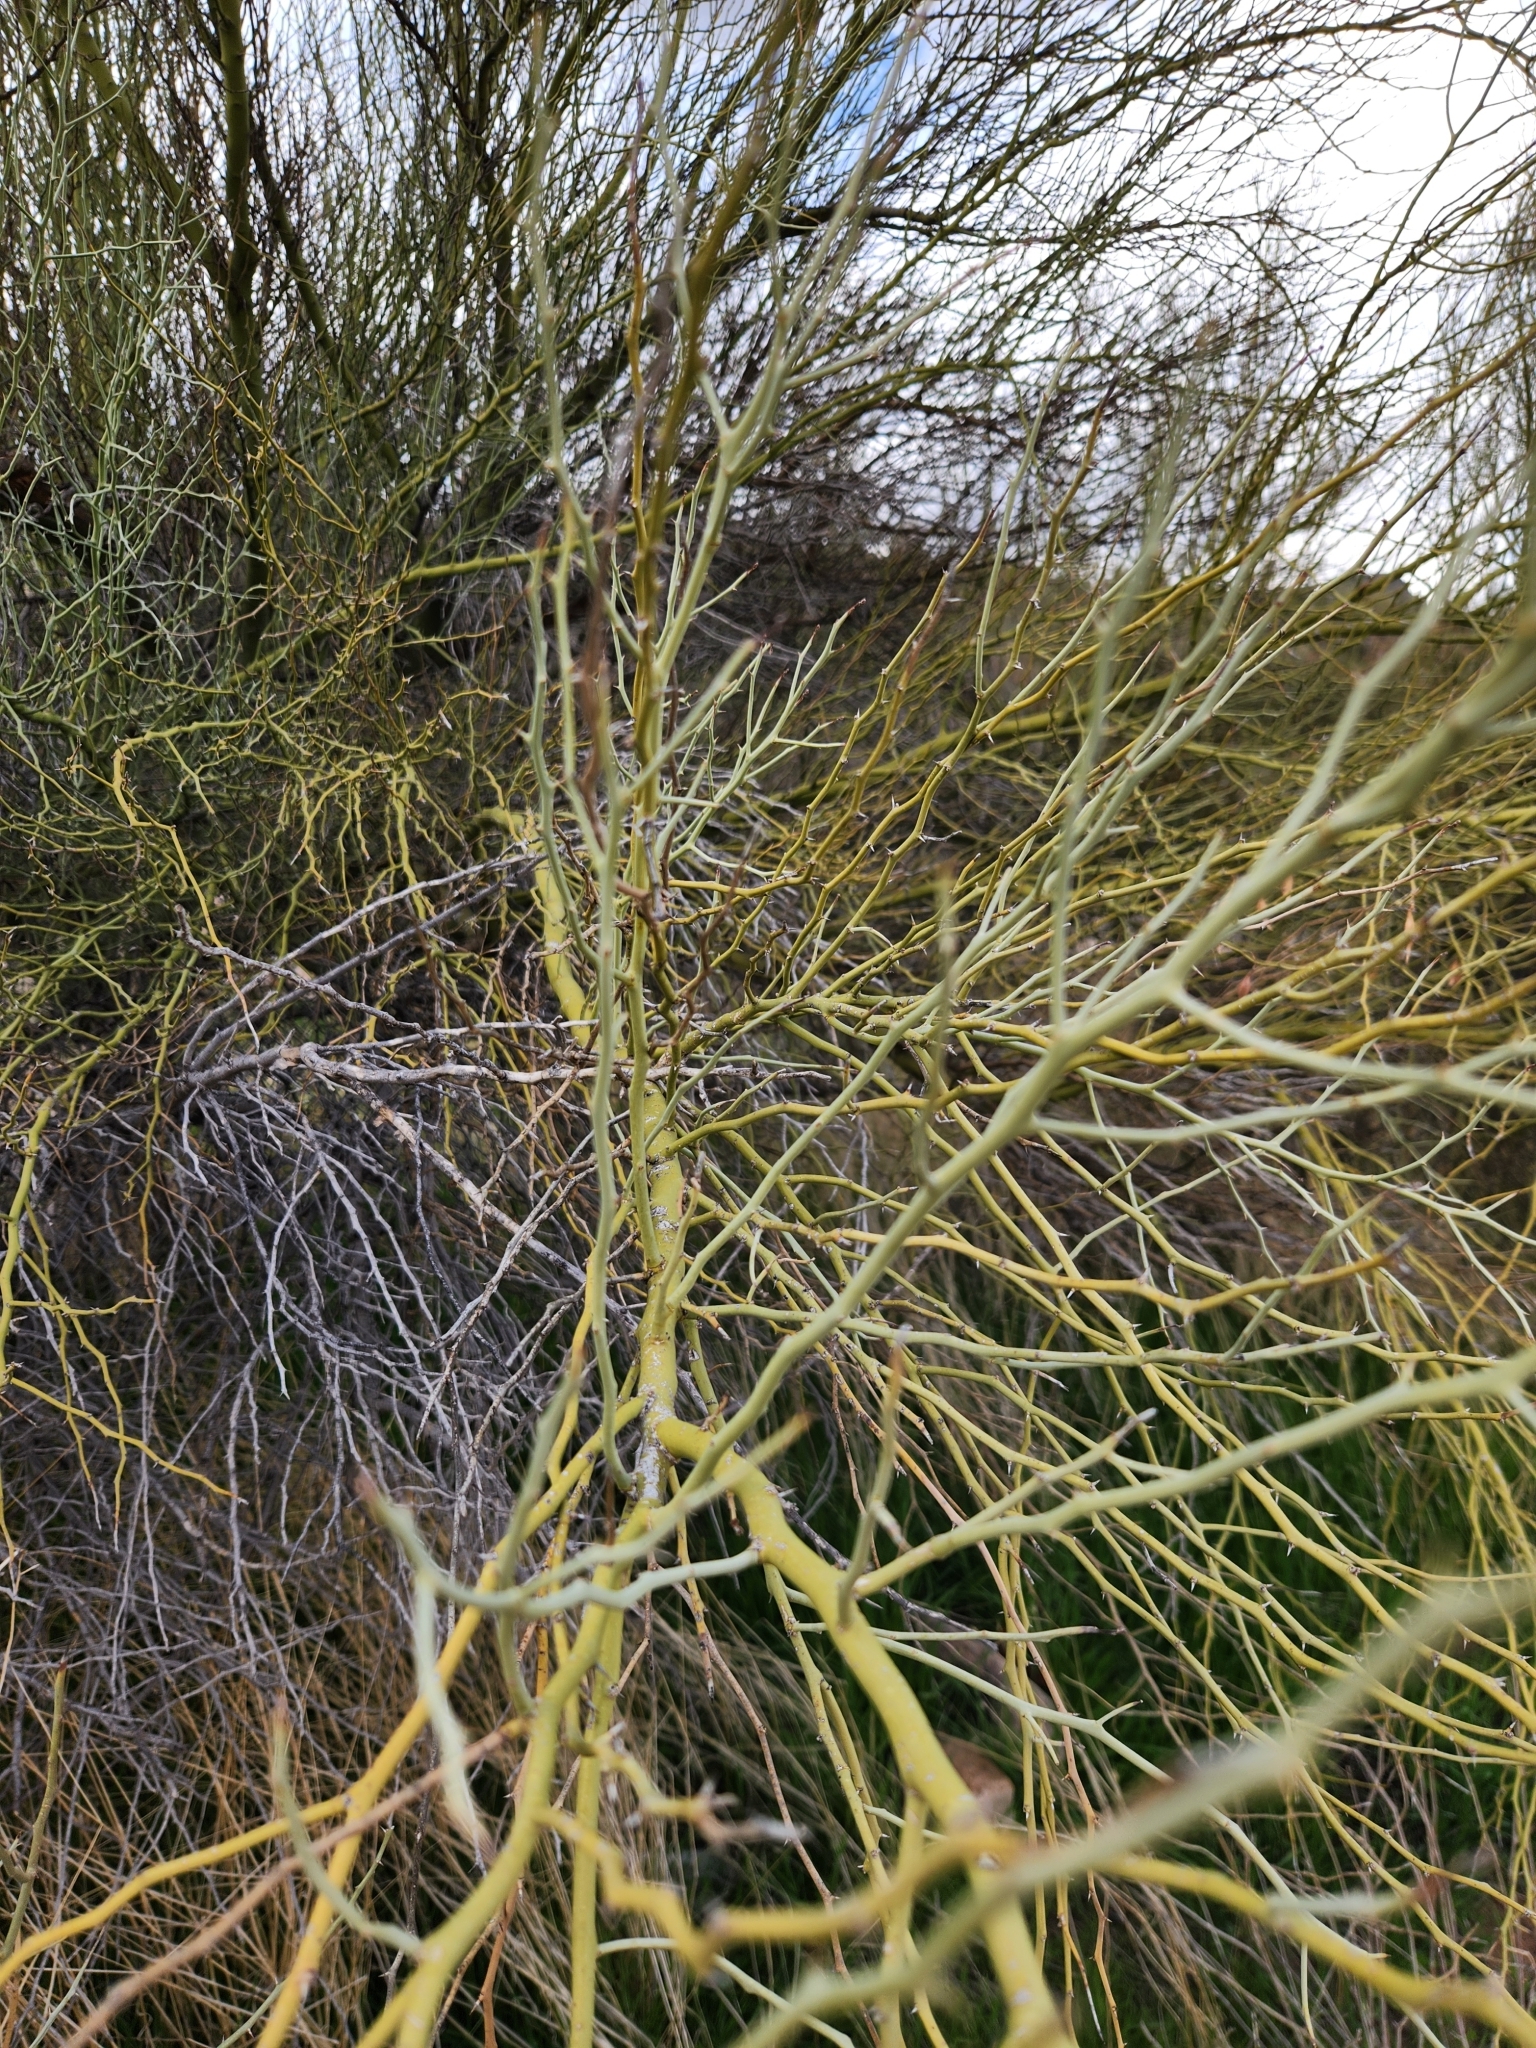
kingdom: Plantae
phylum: Tracheophyta
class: Magnoliopsida
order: Fabales
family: Fabaceae
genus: Parkinsonia
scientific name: Parkinsonia florida
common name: Blue paloverde
